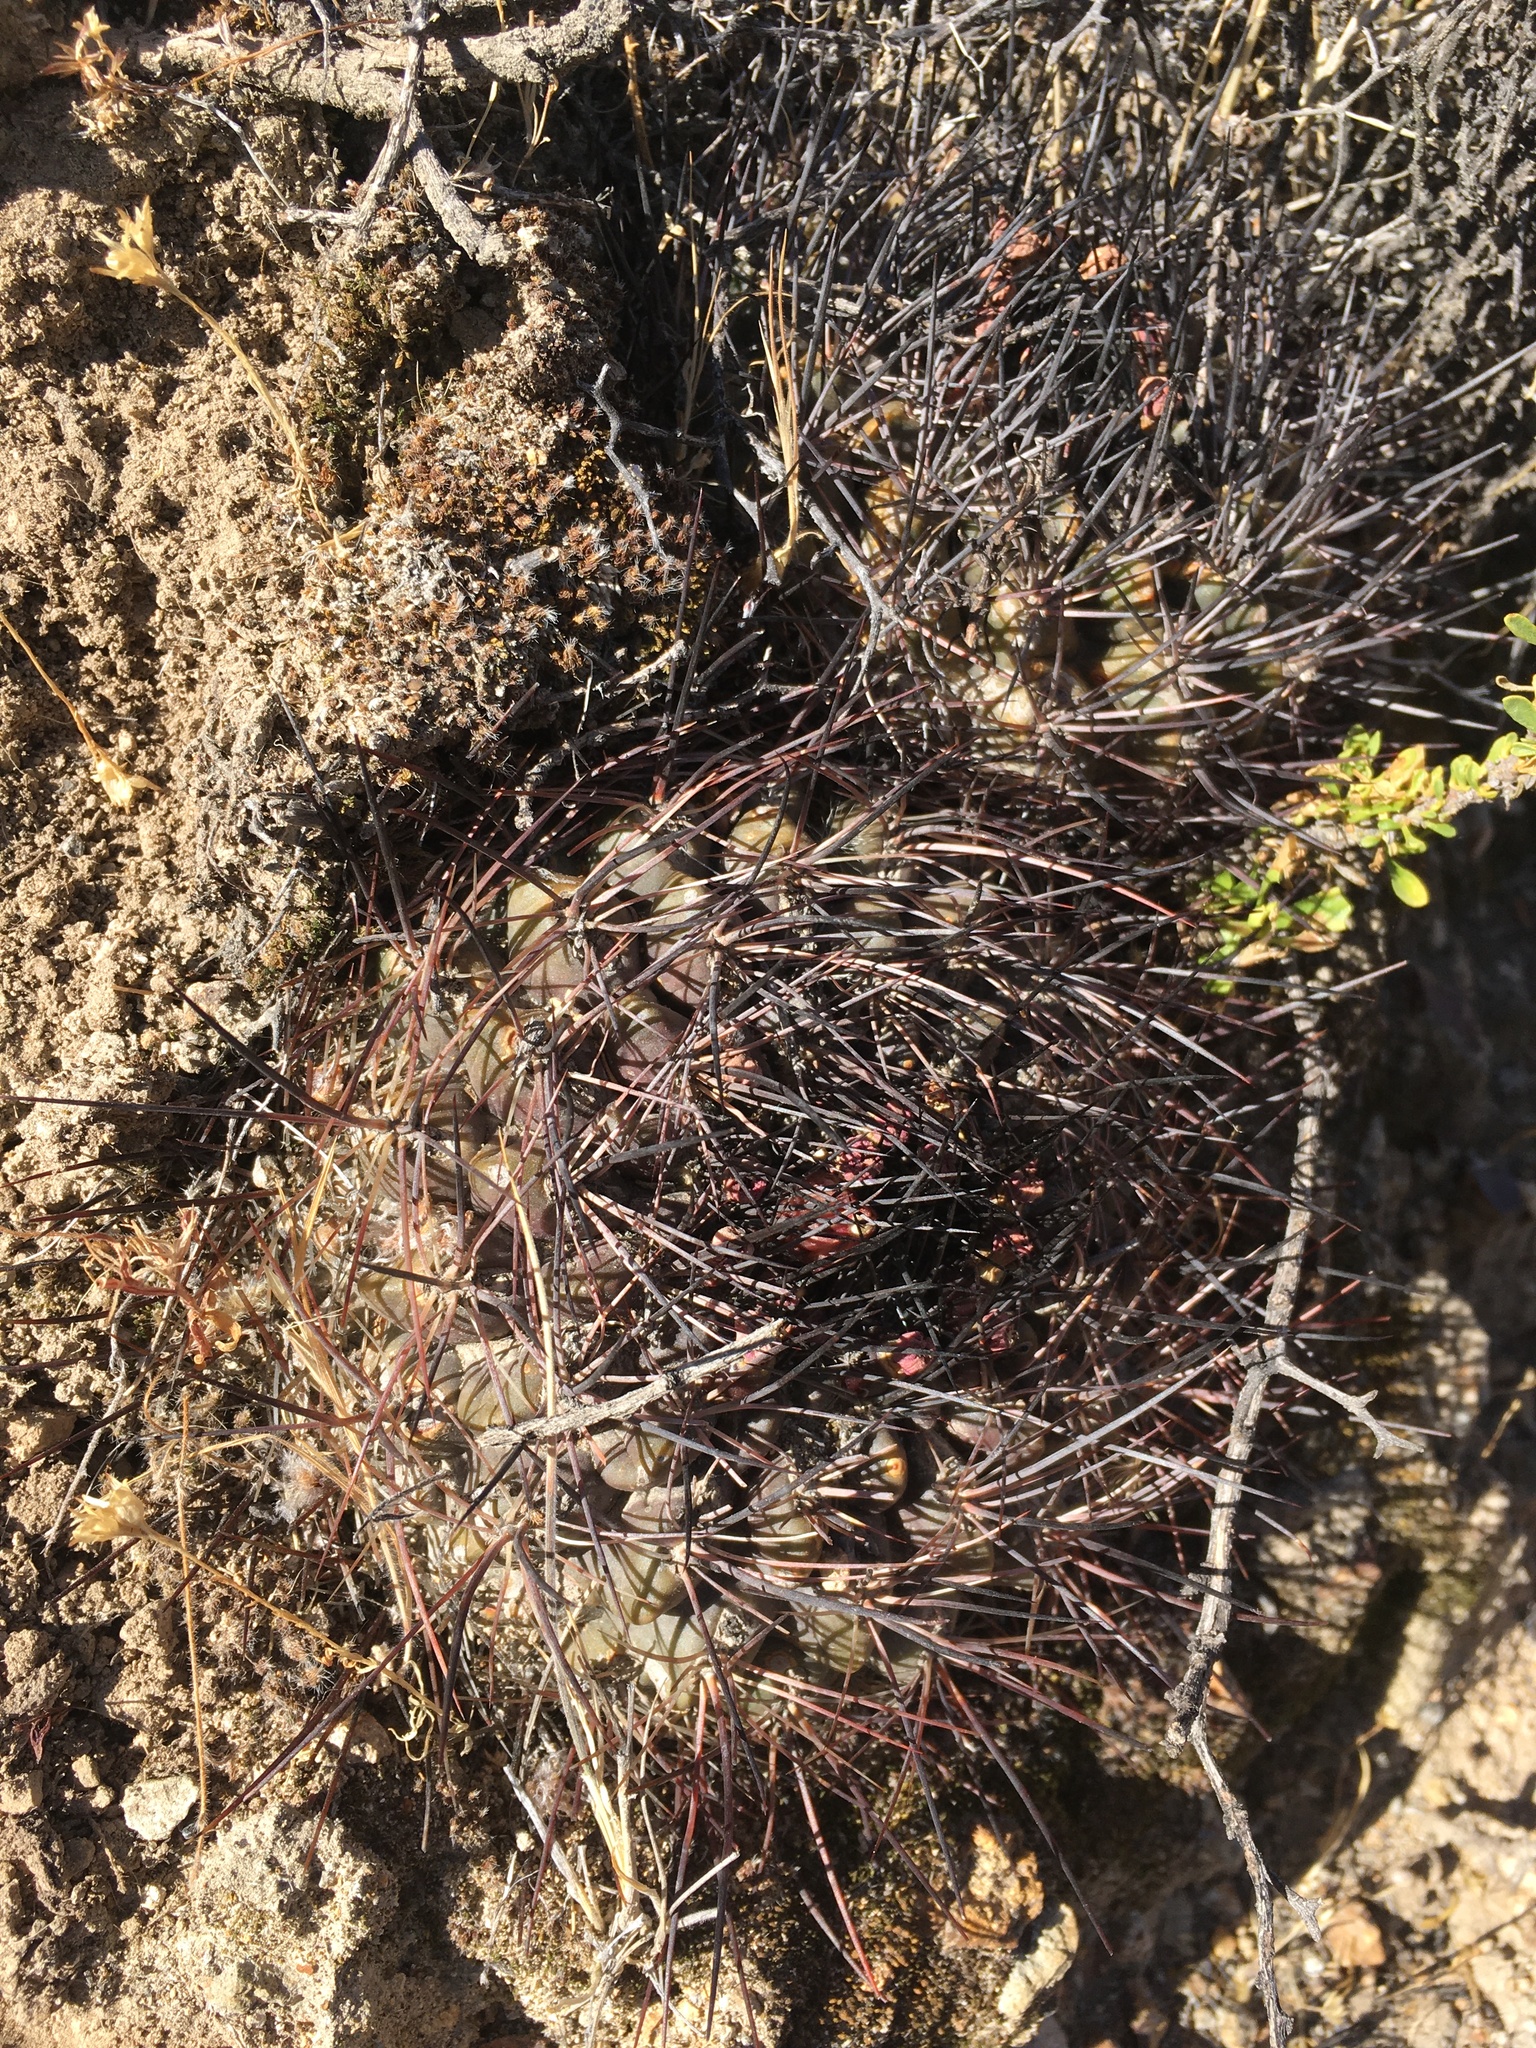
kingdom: Plantae
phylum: Tracheophyta
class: Magnoliopsida
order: Caryophyllales
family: Cactaceae
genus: Neowerdermannia
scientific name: Neowerdermannia chilensis
